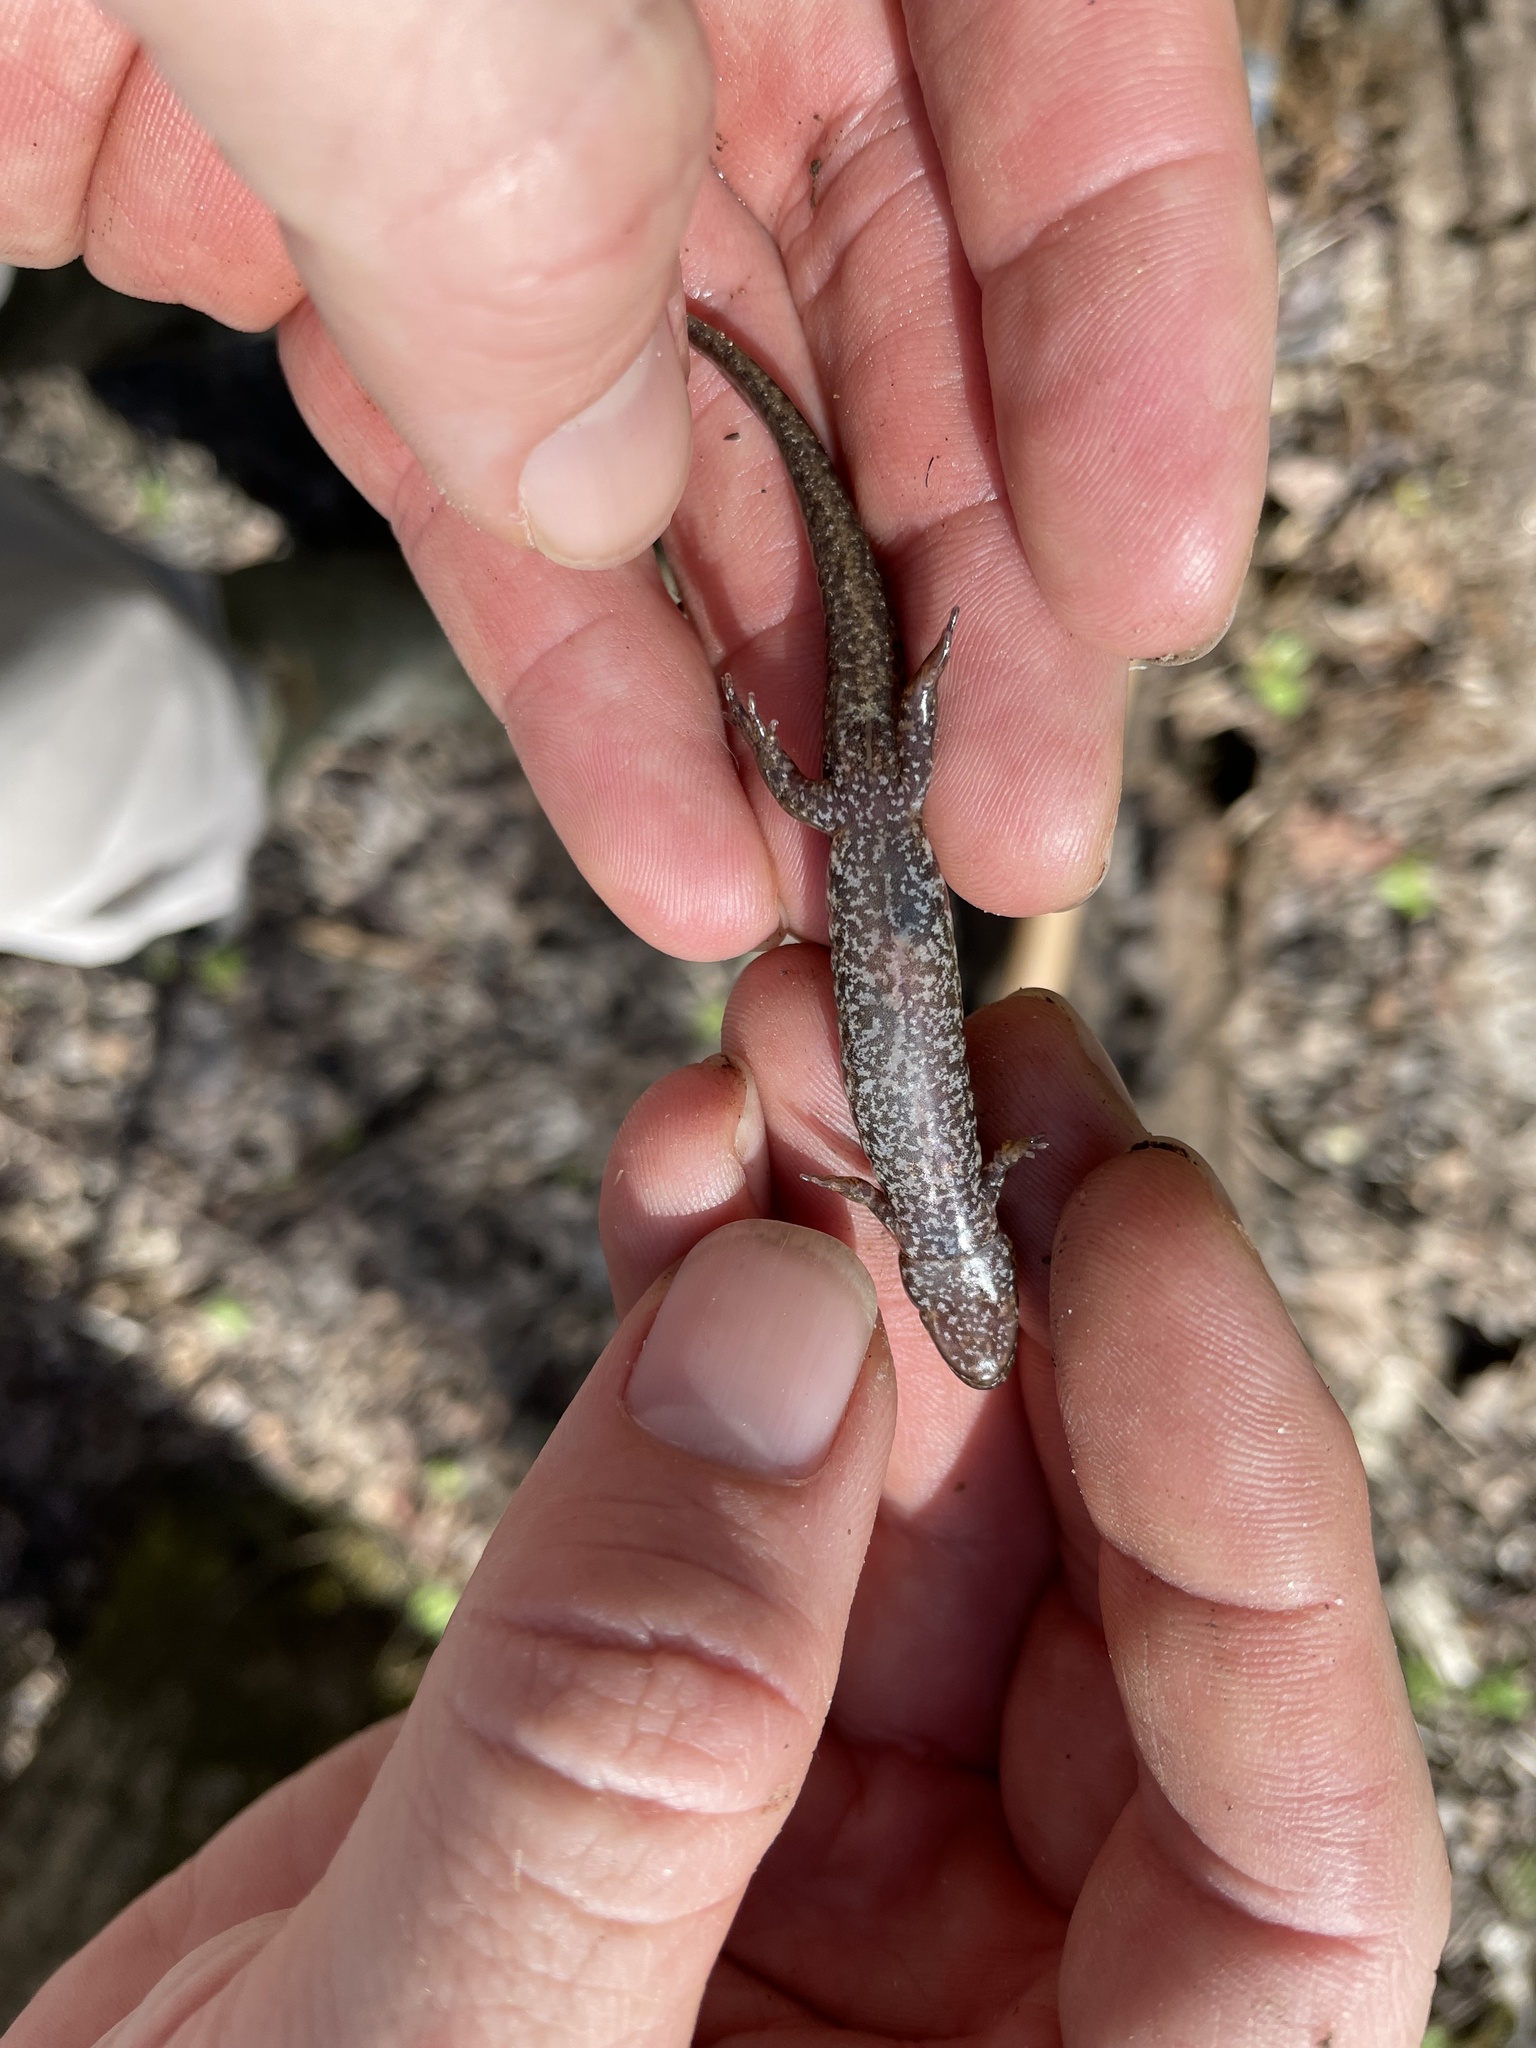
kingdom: Animalia
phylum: Chordata
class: Amphibia
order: Caudata
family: Plethodontidae
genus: Desmognathus
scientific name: Desmognathus conanti
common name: Spotted dusky salamander
